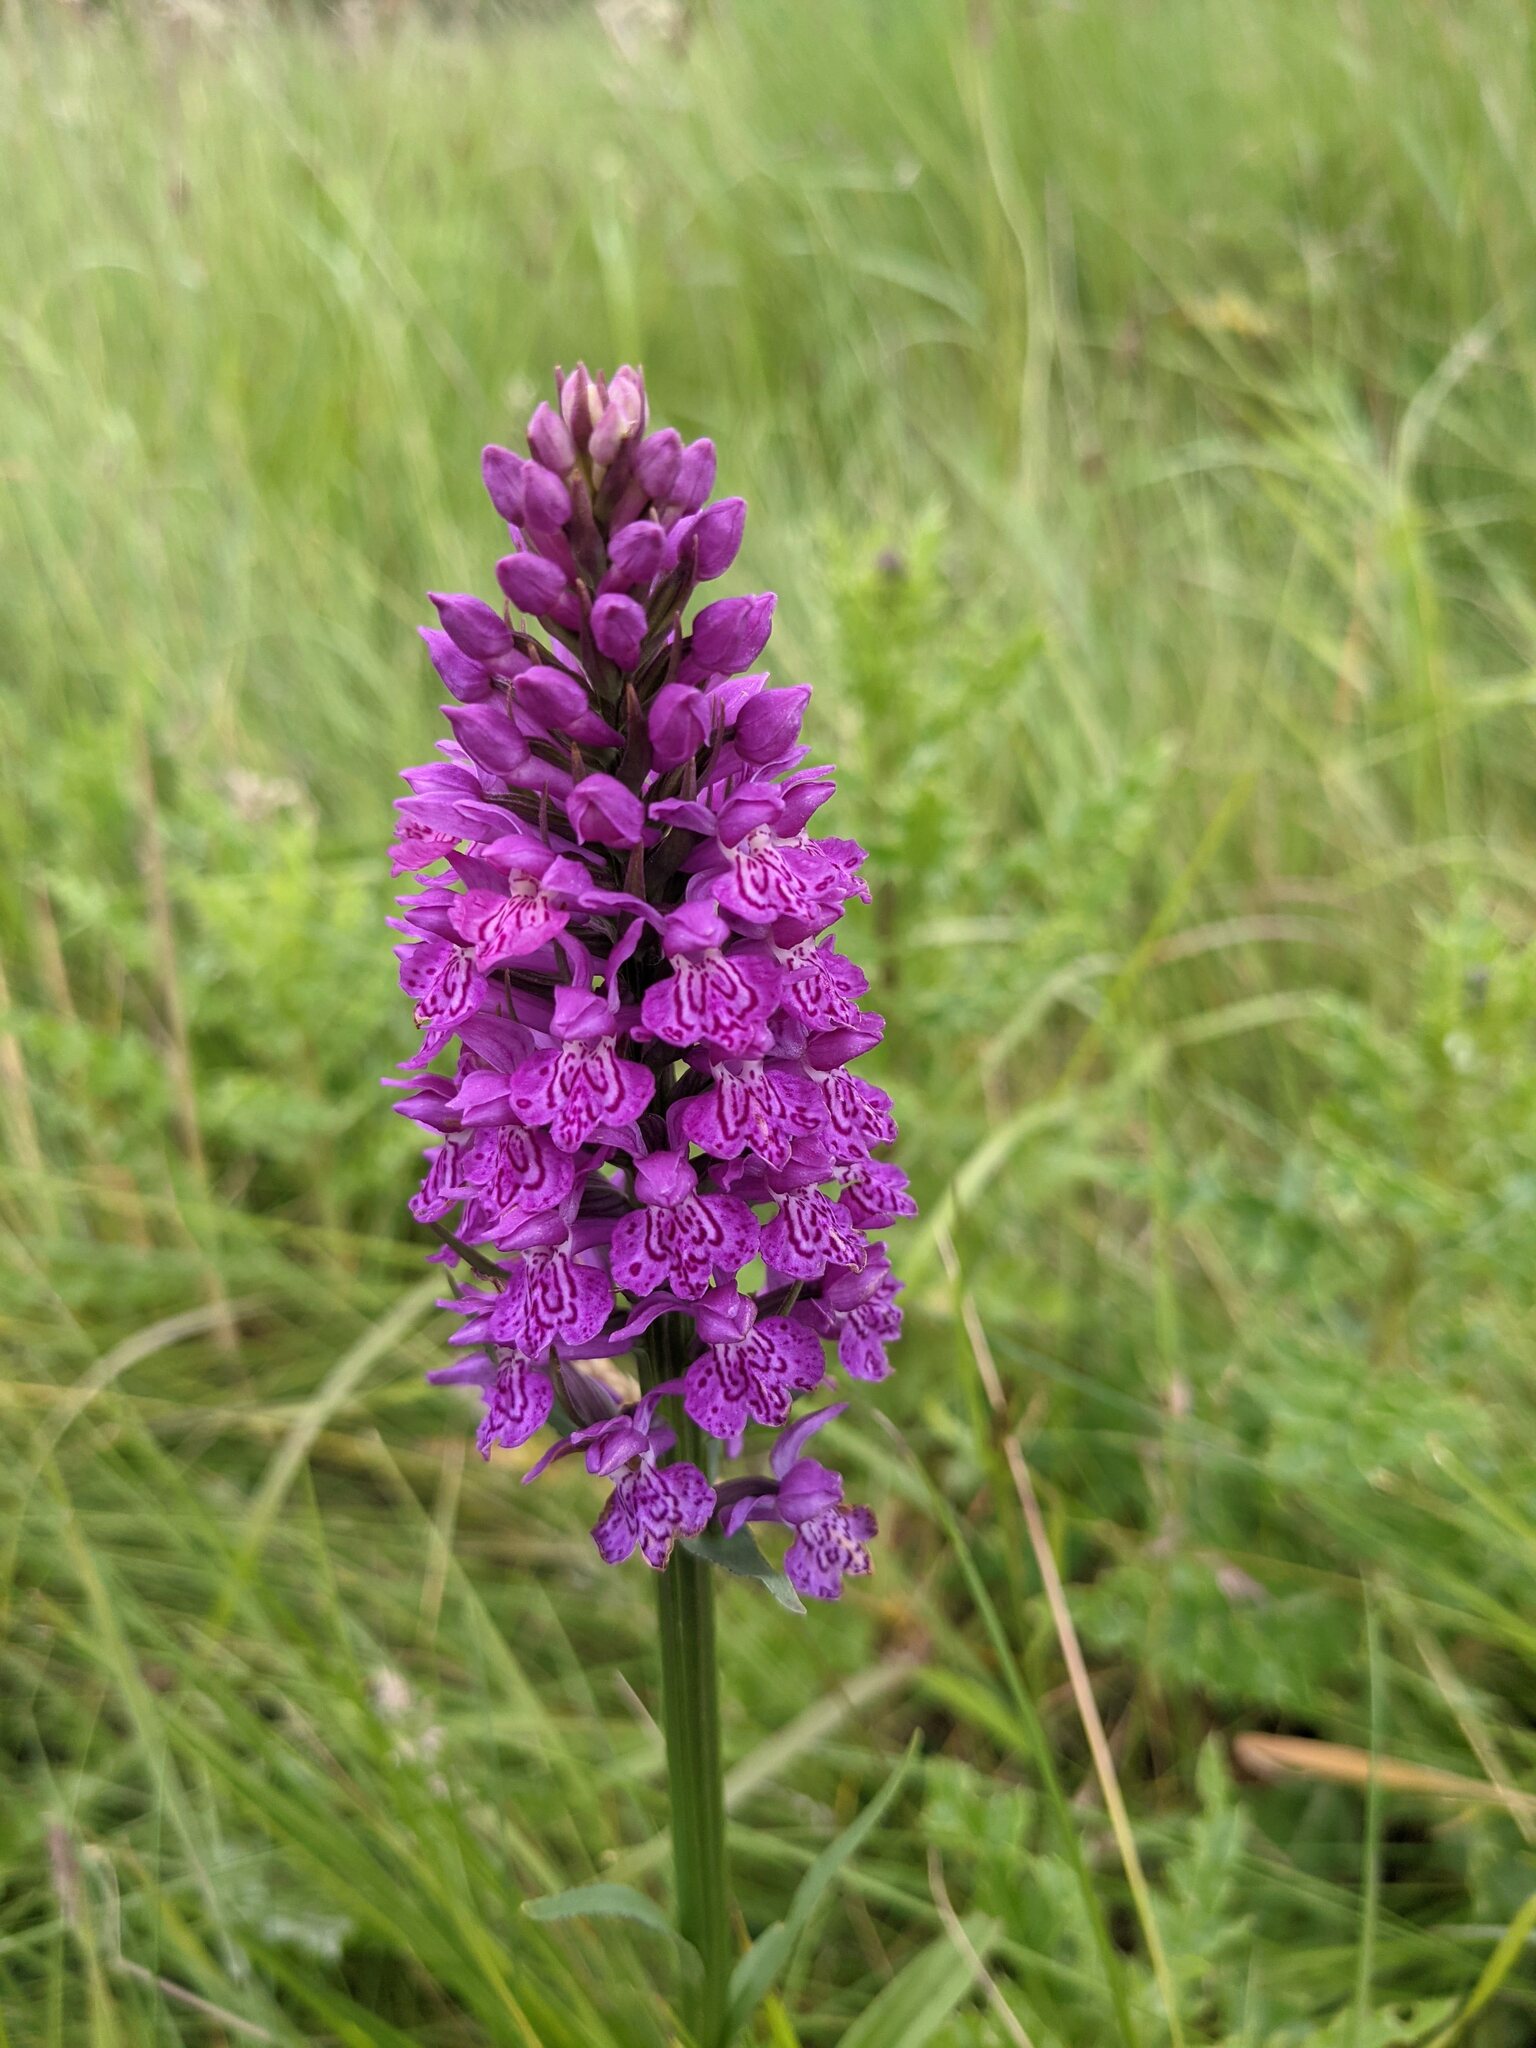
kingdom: Plantae
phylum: Tracheophyta
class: Liliopsida
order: Asparagales
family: Orchidaceae
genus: Dactylorhiza
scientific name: Dactylorhiza majalis
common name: Marsh orchid
